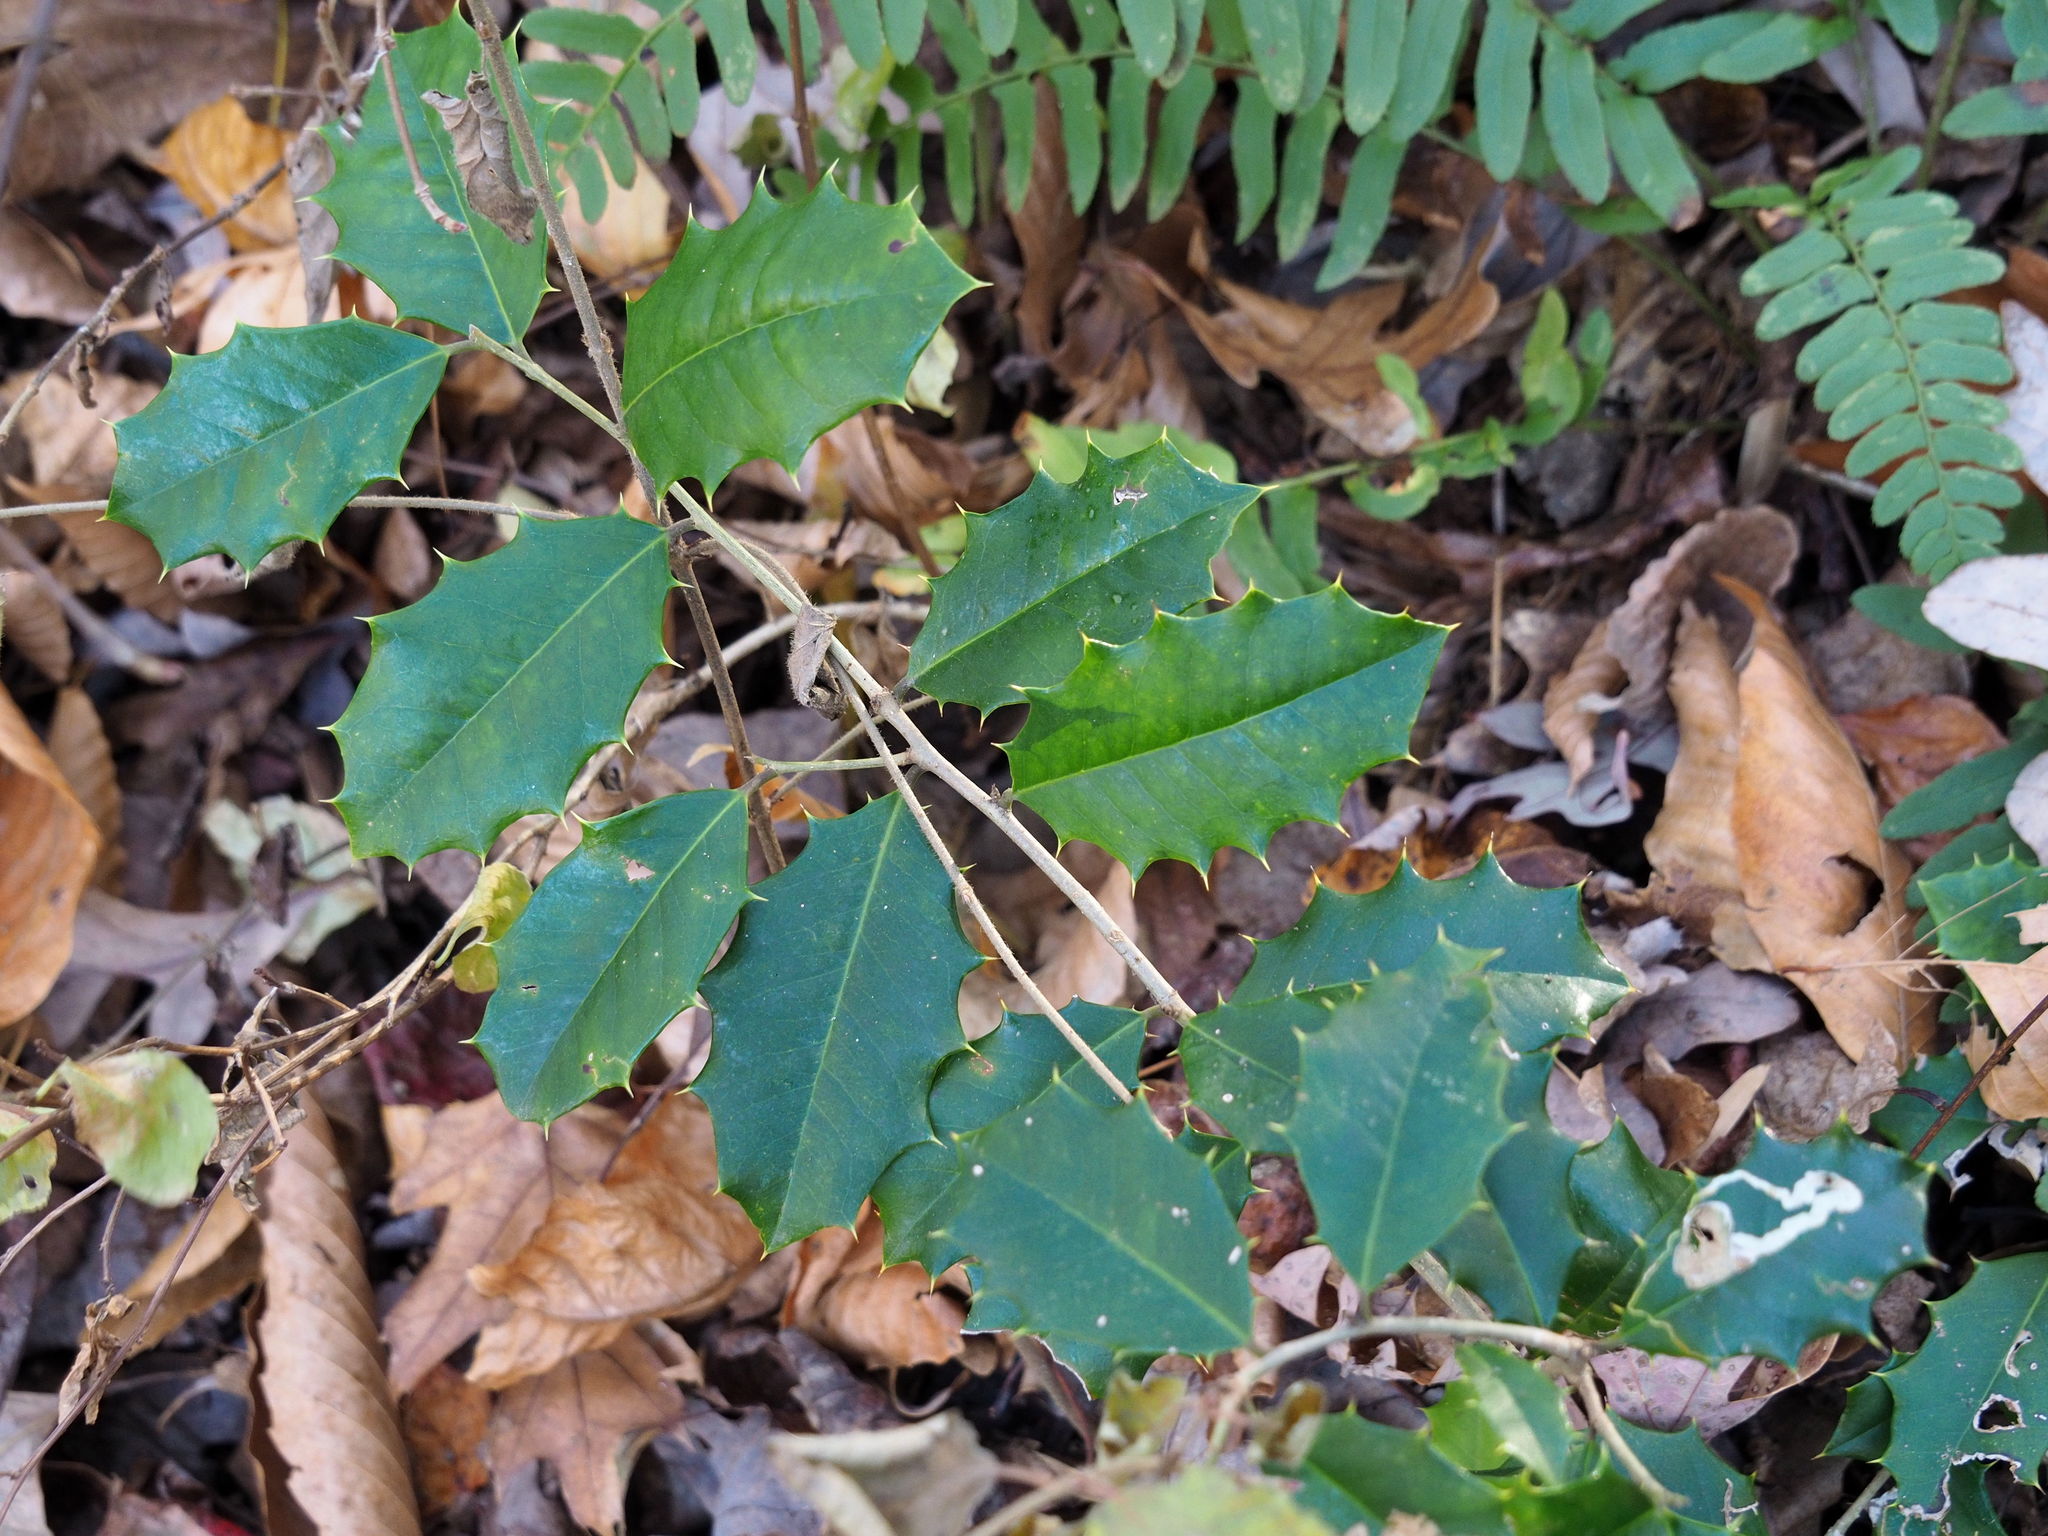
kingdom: Plantae
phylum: Tracheophyta
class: Magnoliopsida
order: Aquifoliales
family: Aquifoliaceae
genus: Ilex
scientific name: Ilex opaca
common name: American holly
